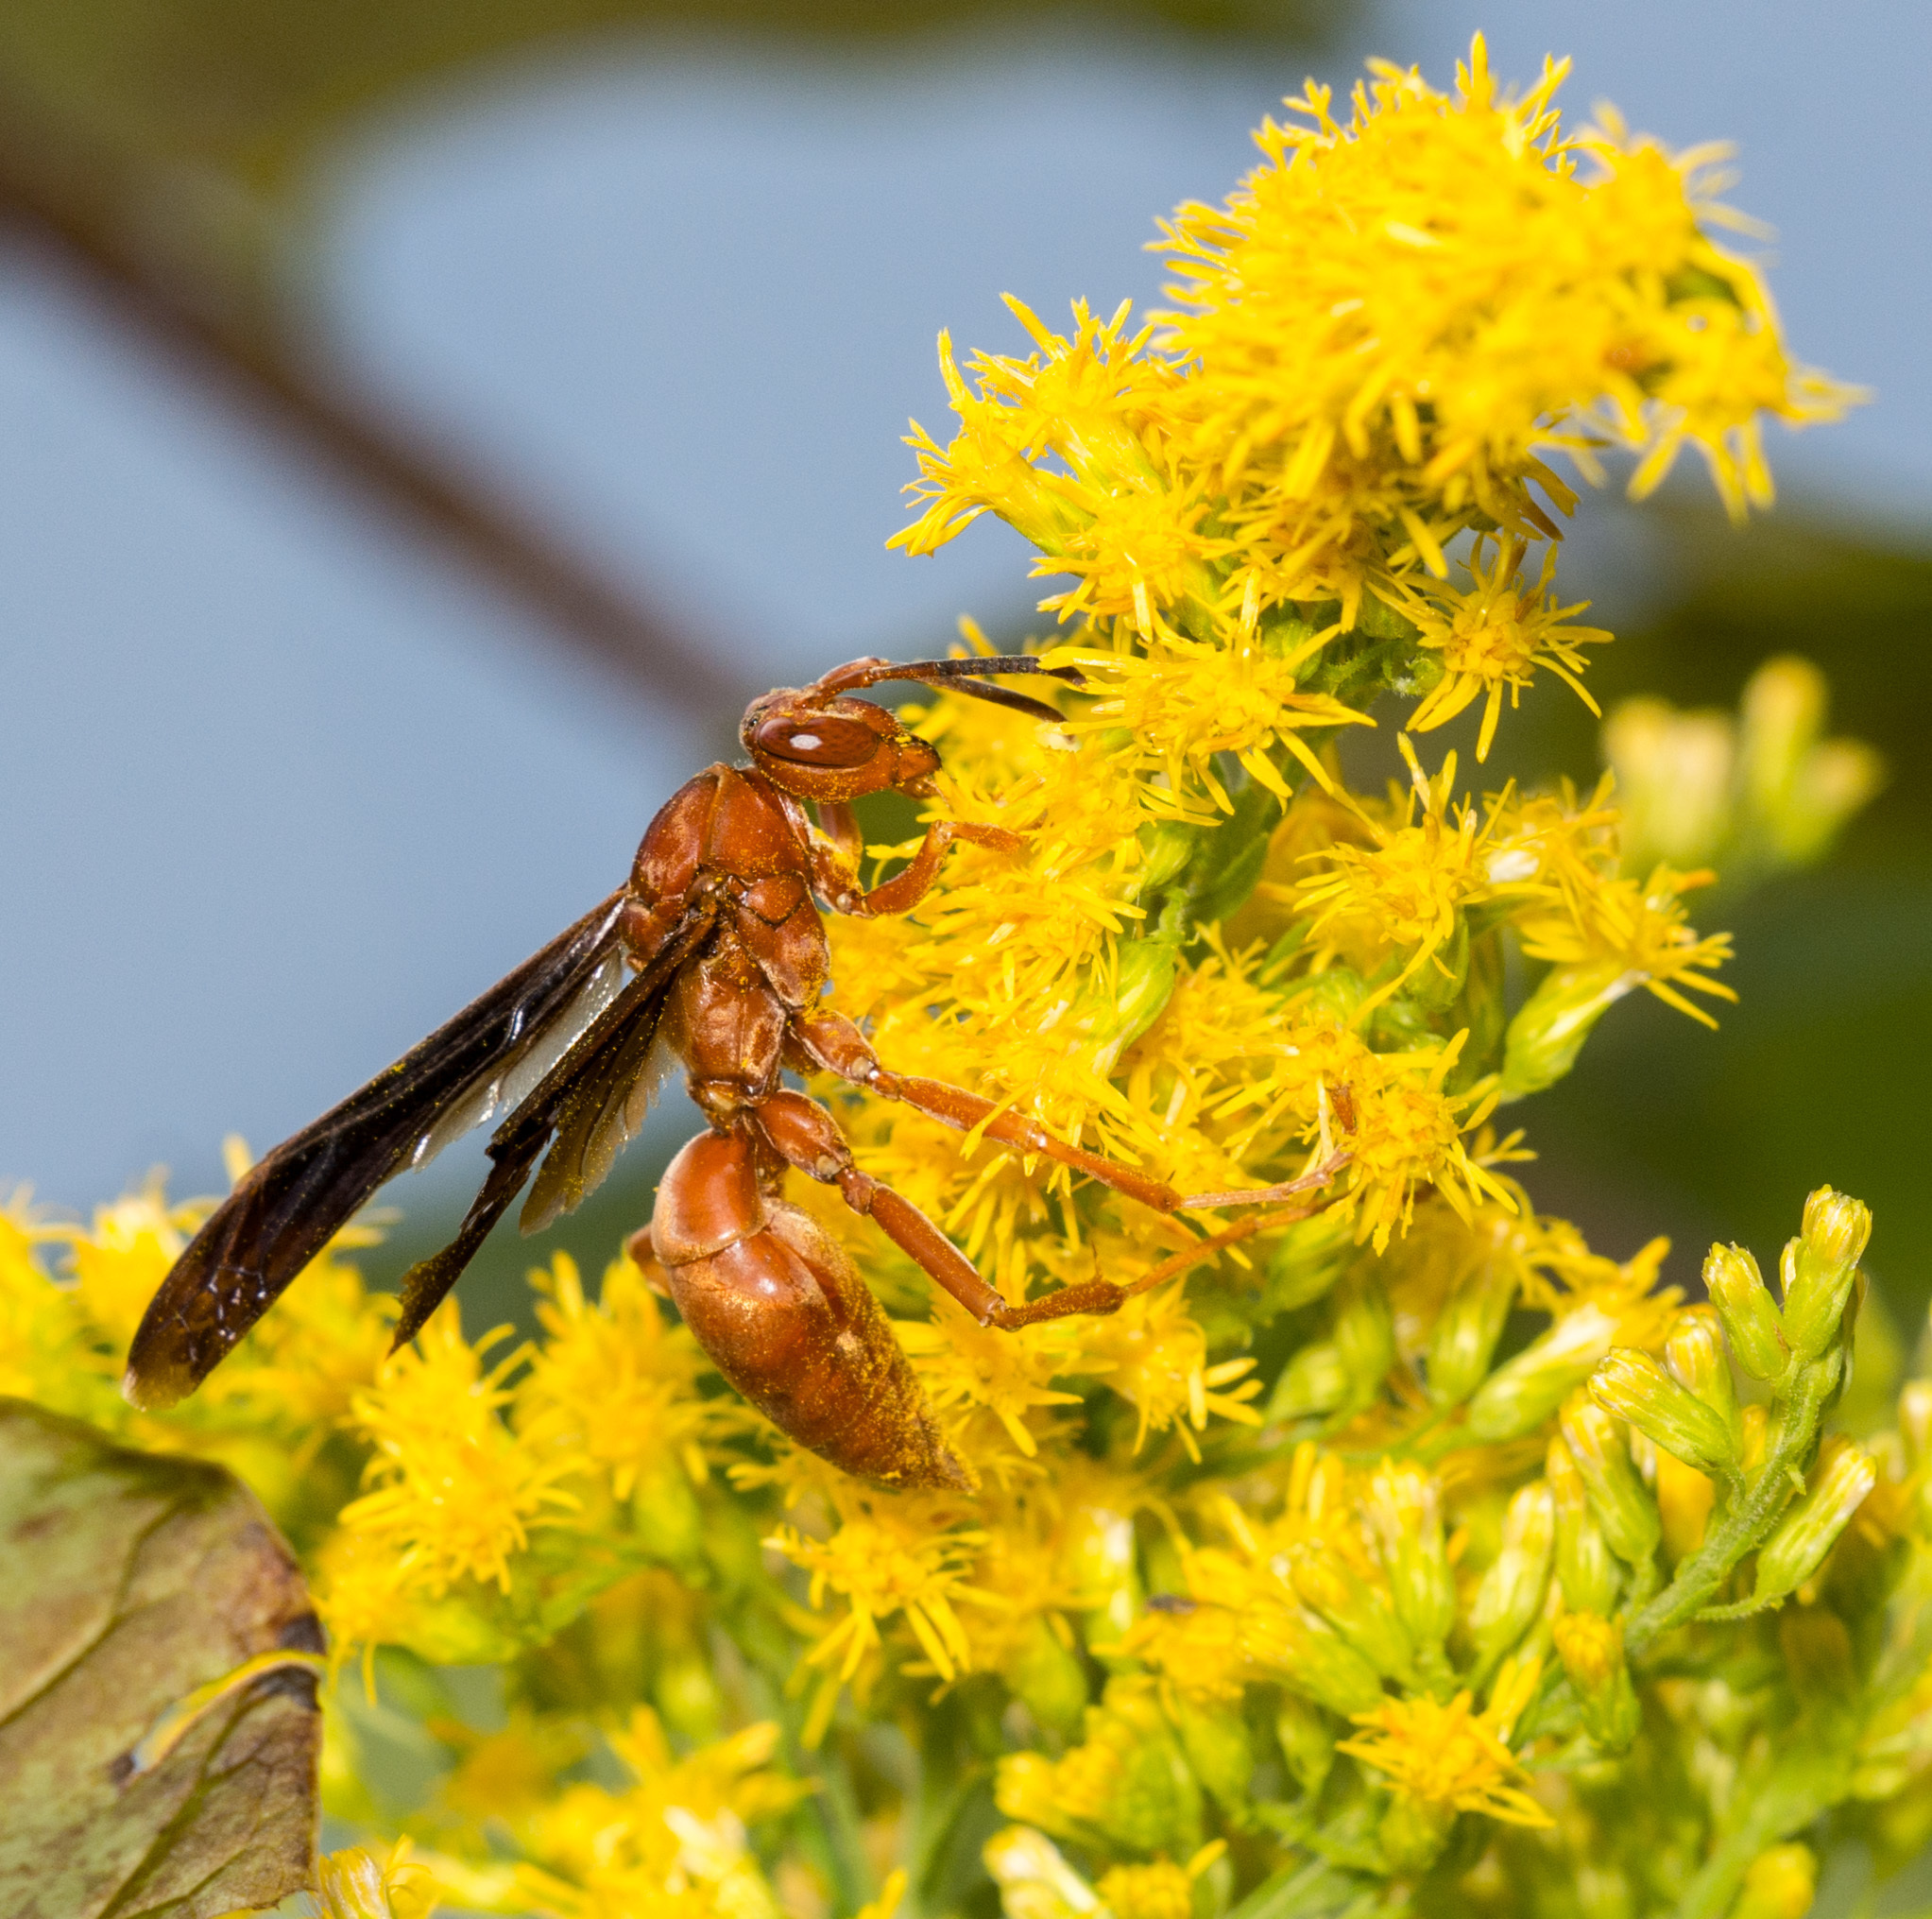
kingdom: Animalia
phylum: Arthropoda
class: Insecta
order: Hymenoptera
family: Vespidae
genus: Fuscopolistes
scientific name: Fuscopolistes
